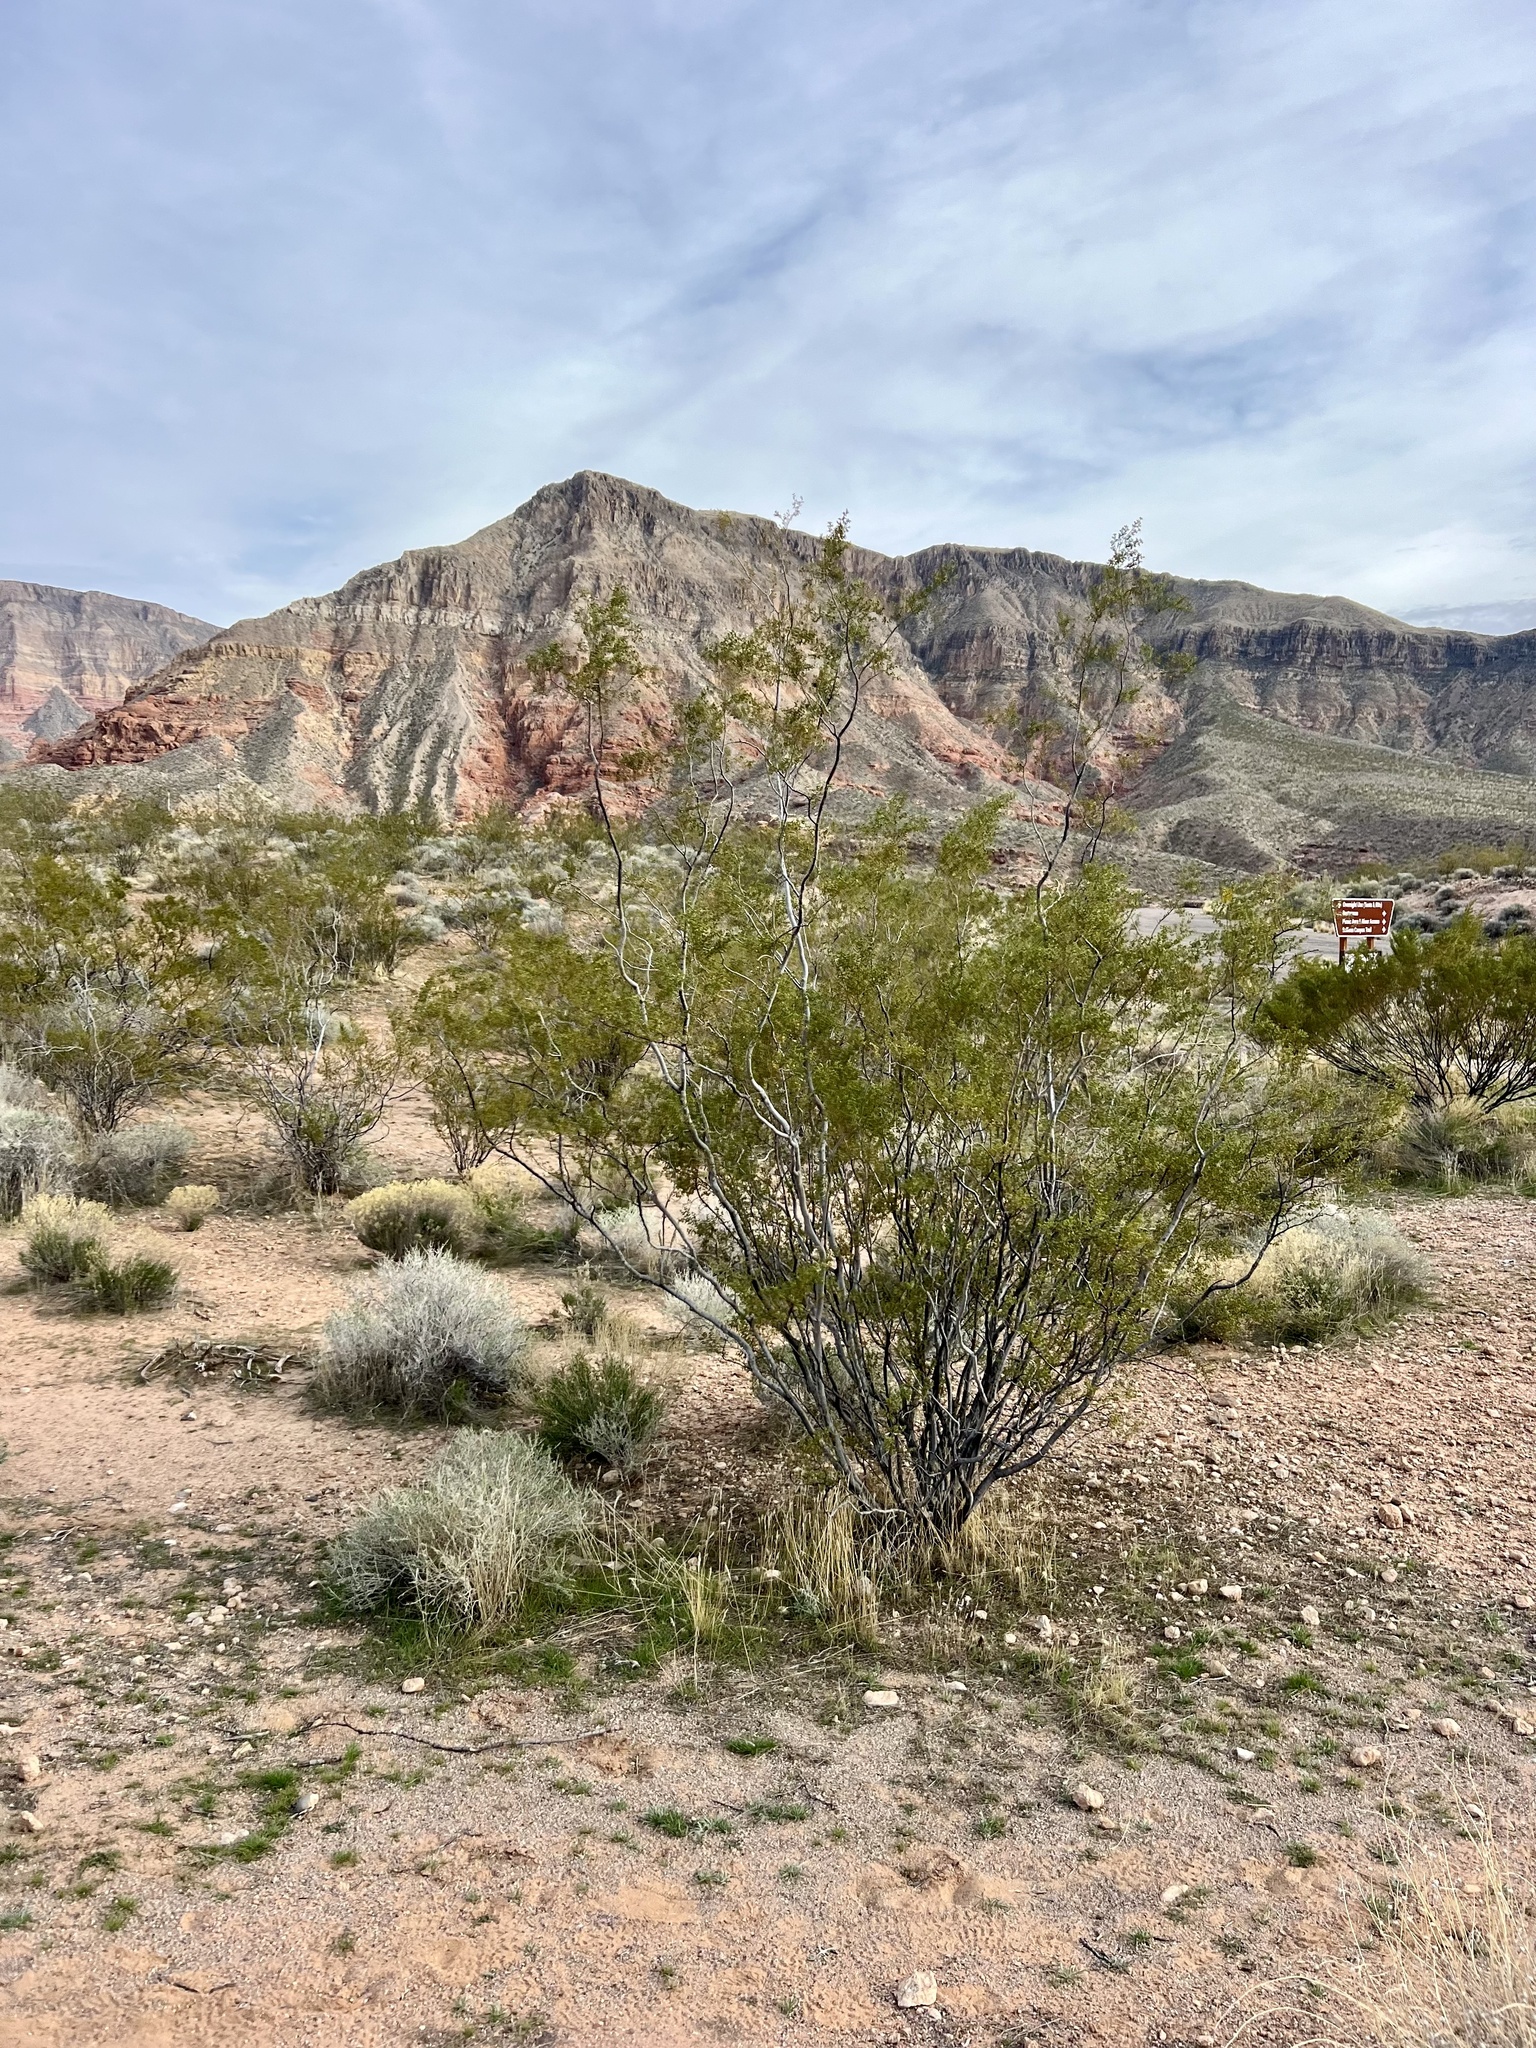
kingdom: Plantae
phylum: Tracheophyta
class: Magnoliopsida
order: Zygophyllales
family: Zygophyllaceae
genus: Larrea
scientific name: Larrea tridentata
